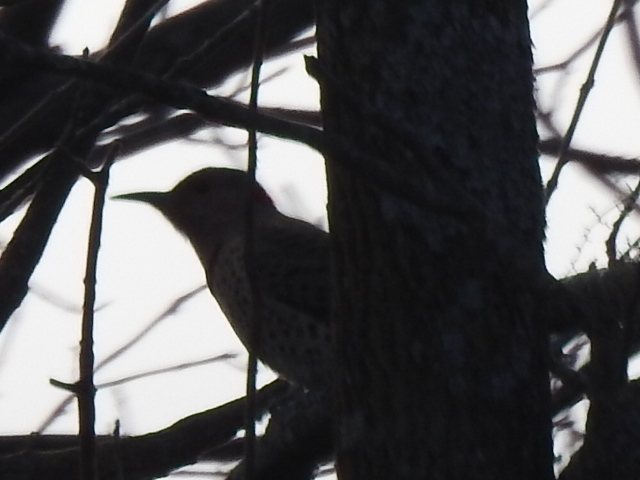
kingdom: Animalia
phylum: Chordata
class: Aves
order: Piciformes
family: Picidae
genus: Colaptes
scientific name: Colaptes auratus
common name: Northern flicker
